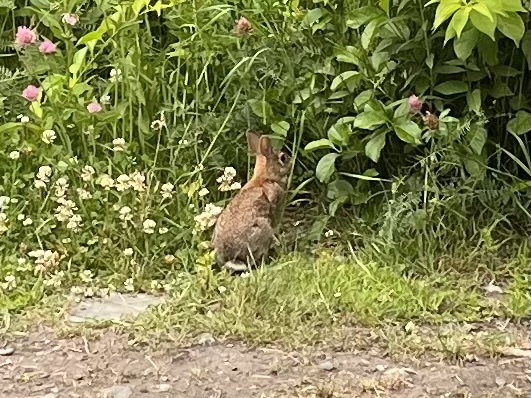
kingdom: Animalia
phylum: Chordata
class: Mammalia
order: Lagomorpha
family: Leporidae
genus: Sylvilagus
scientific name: Sylvilagus floridanus
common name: Eastern cottontail
